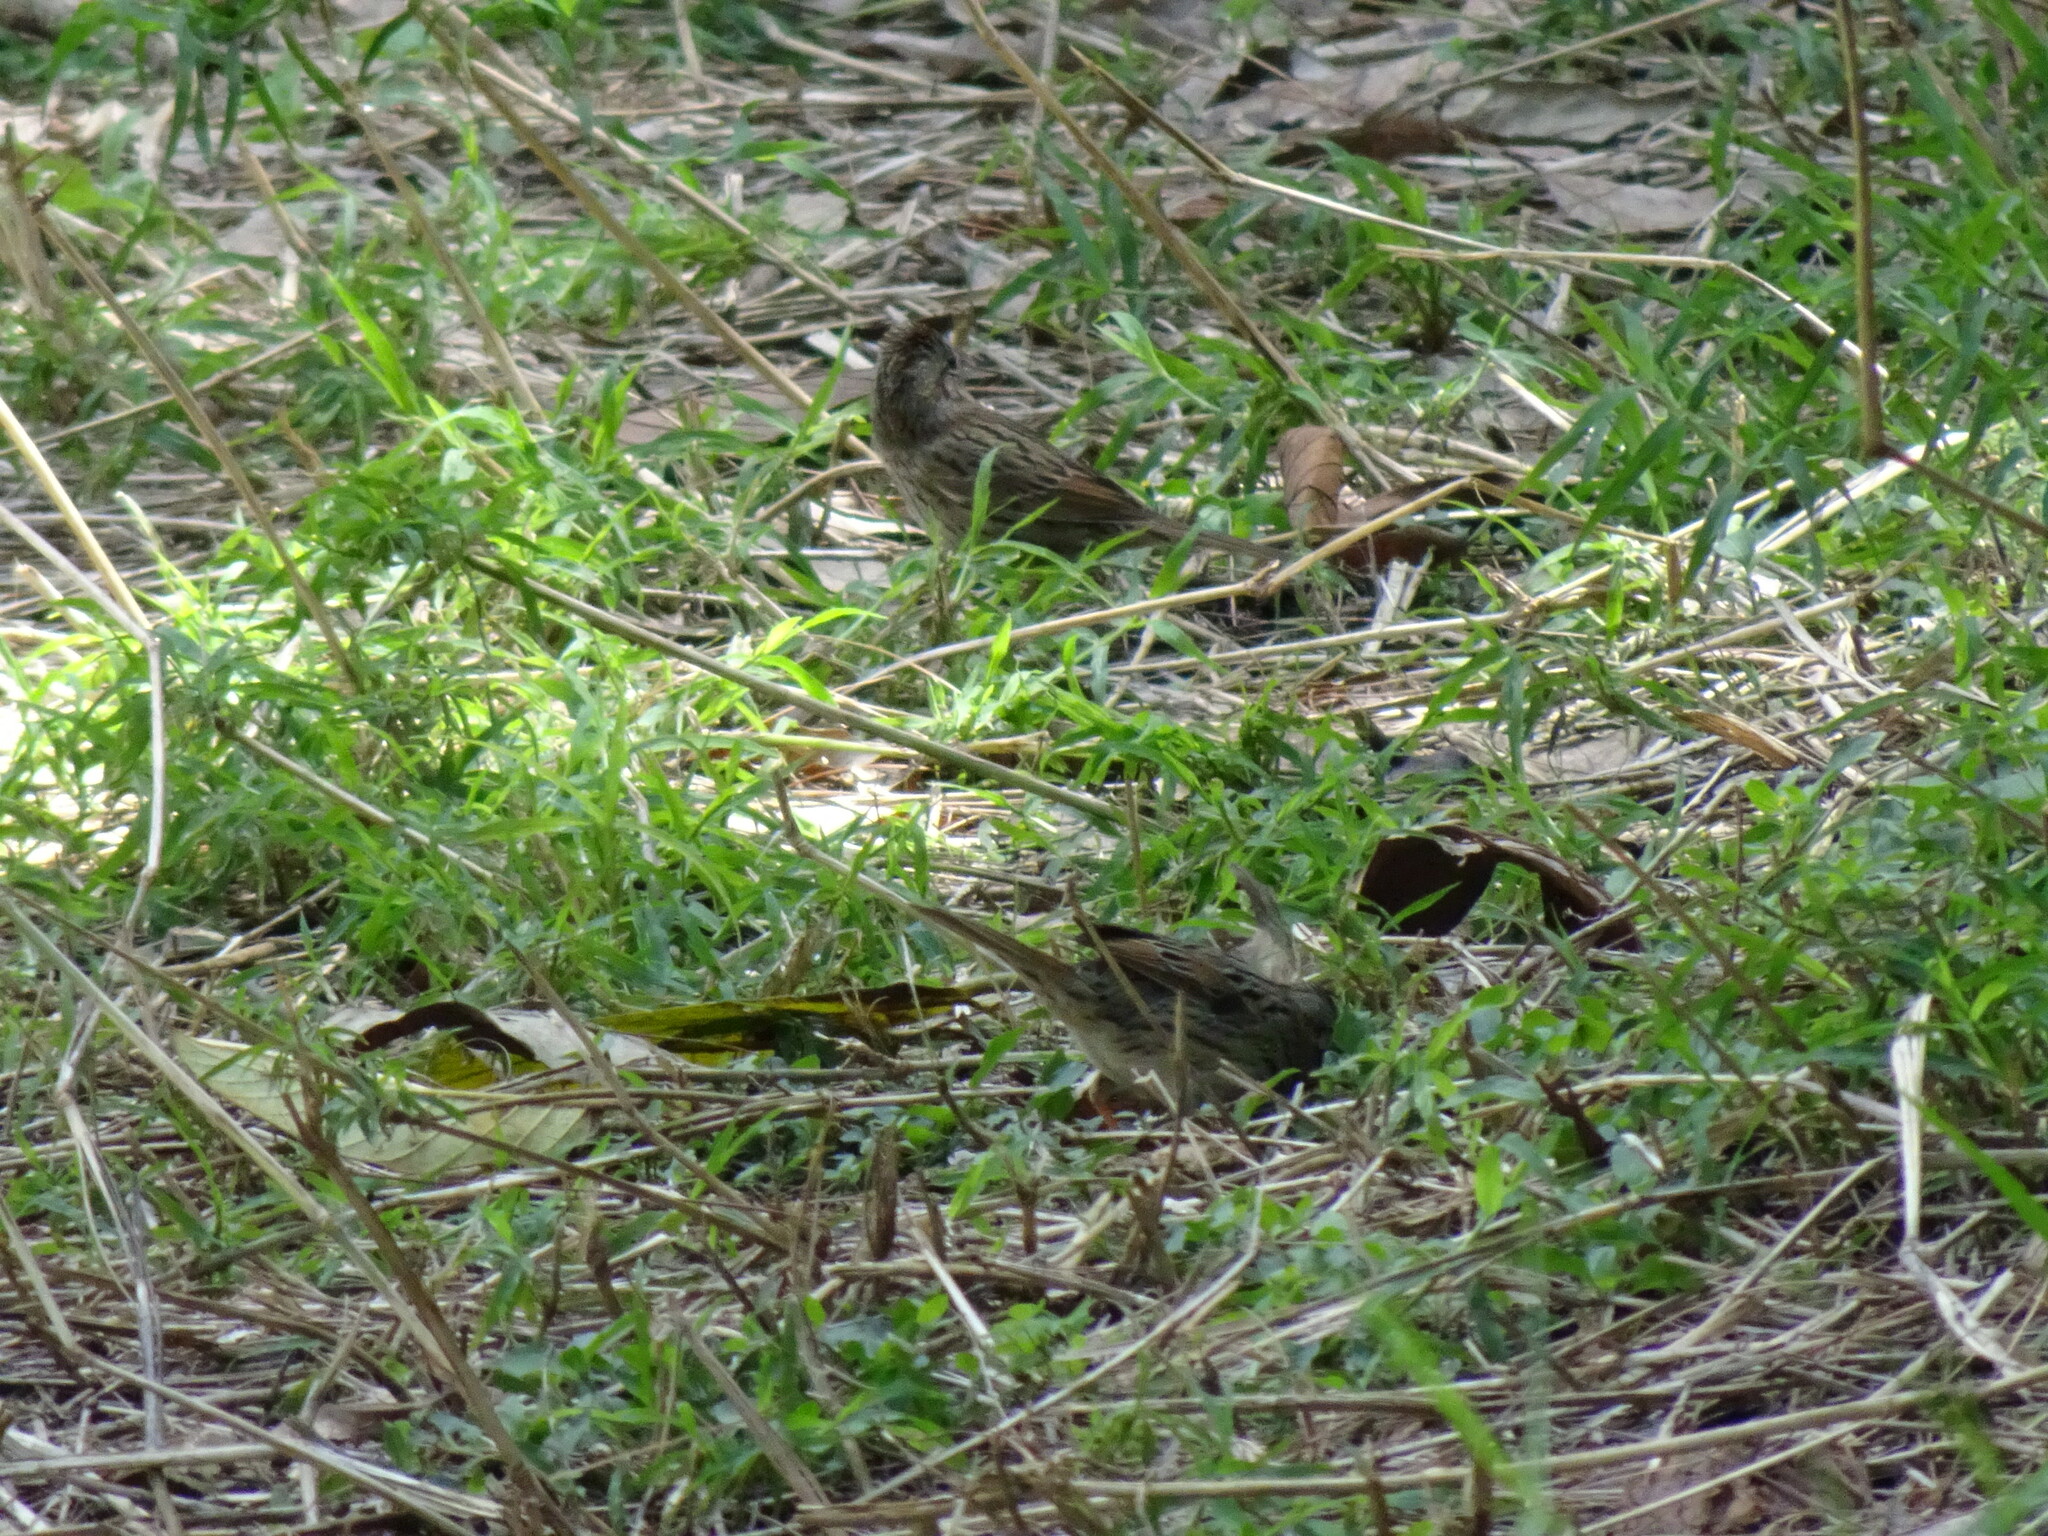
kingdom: Animalia
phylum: Chordata
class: Aves
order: Passeriformes
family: Passerellidae
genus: Melospiza
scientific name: Melospiza lincolnii
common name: Lincoln's sparrow
